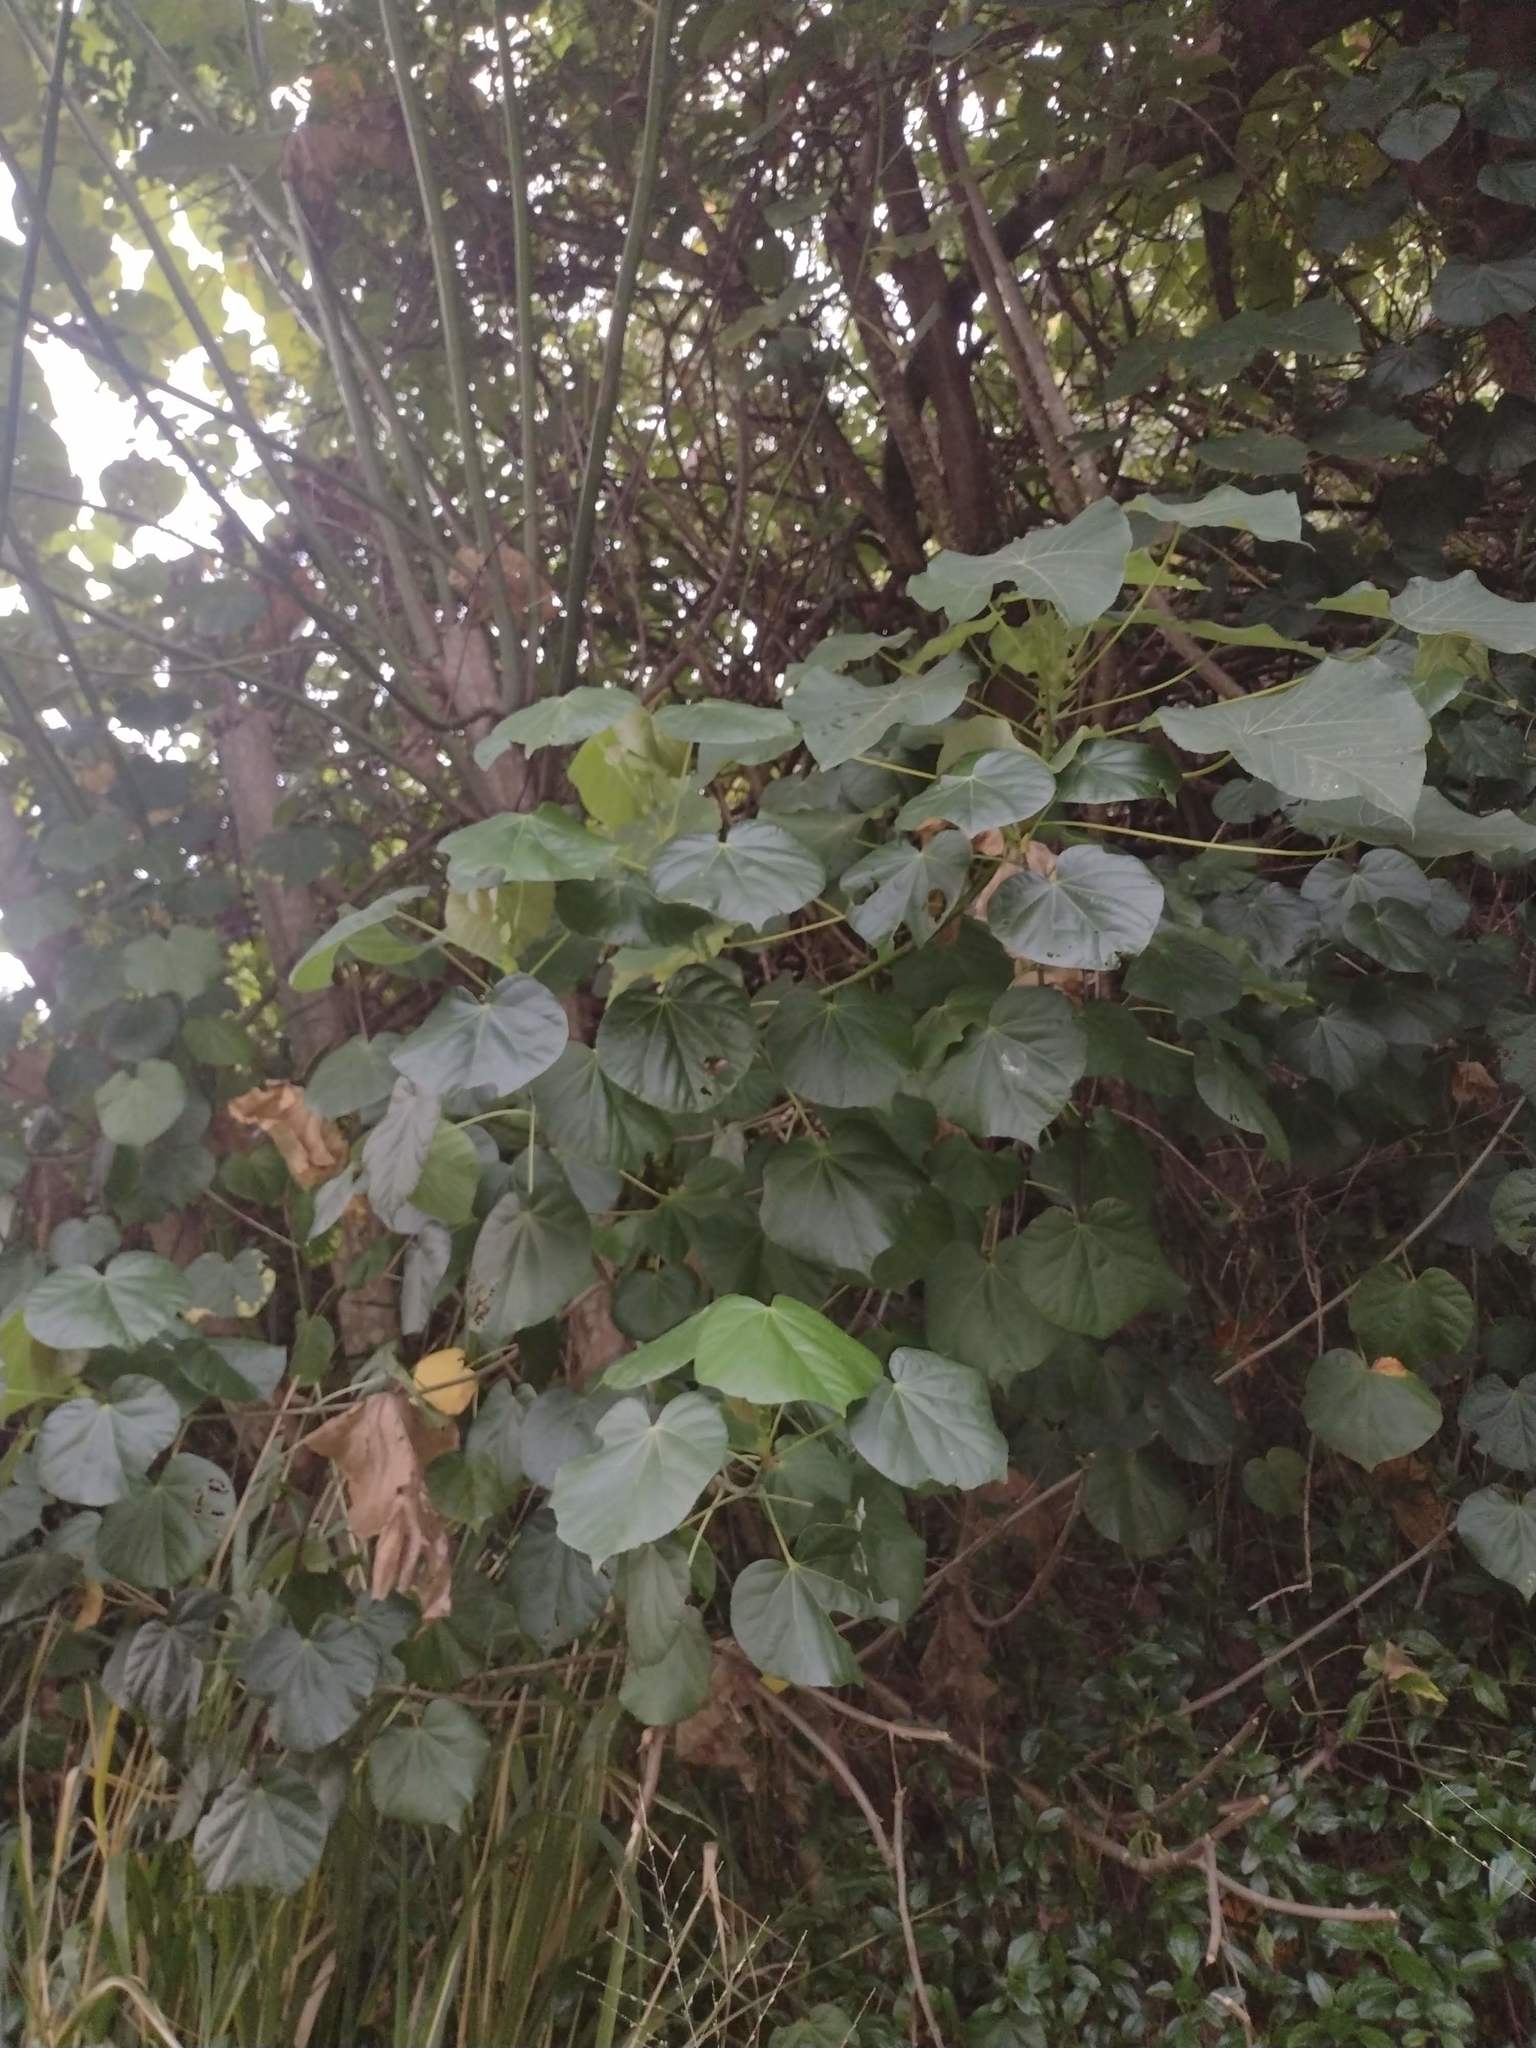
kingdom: Plantae
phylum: Tracheophyta
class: Magnoliopsida
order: Malvales
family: Malvaceae
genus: Talipariti
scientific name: Talipariti tiliaceum
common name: Sea hibiscus
